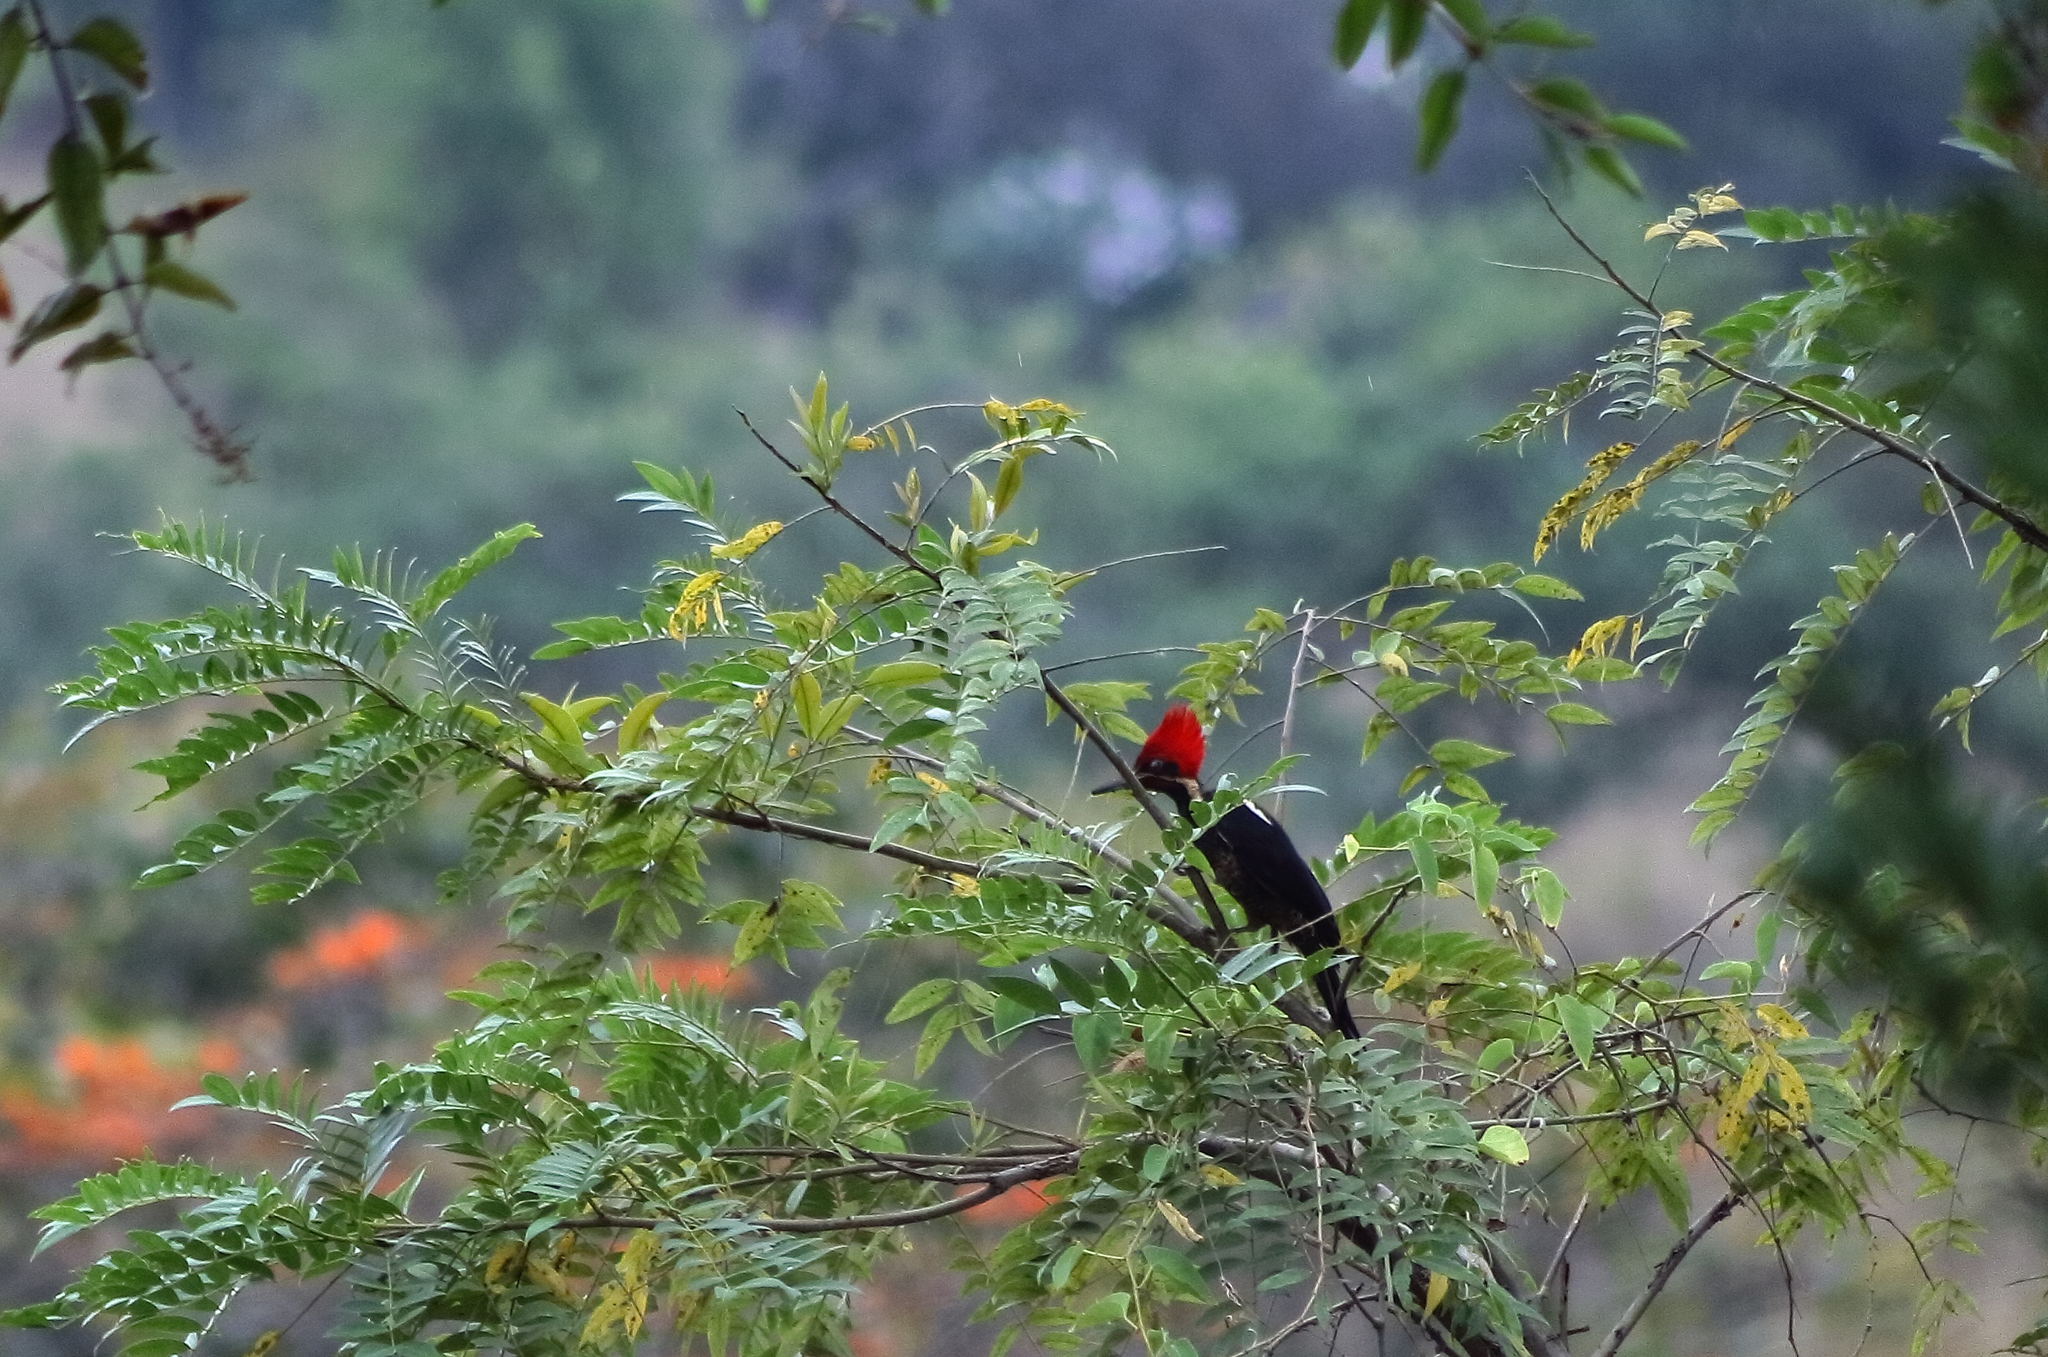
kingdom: Animalia
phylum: Chordata
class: Aves
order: Piciformes
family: Picidae
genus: Dryocopus
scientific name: Dryocopus lineatus
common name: Lineated woodpecker
